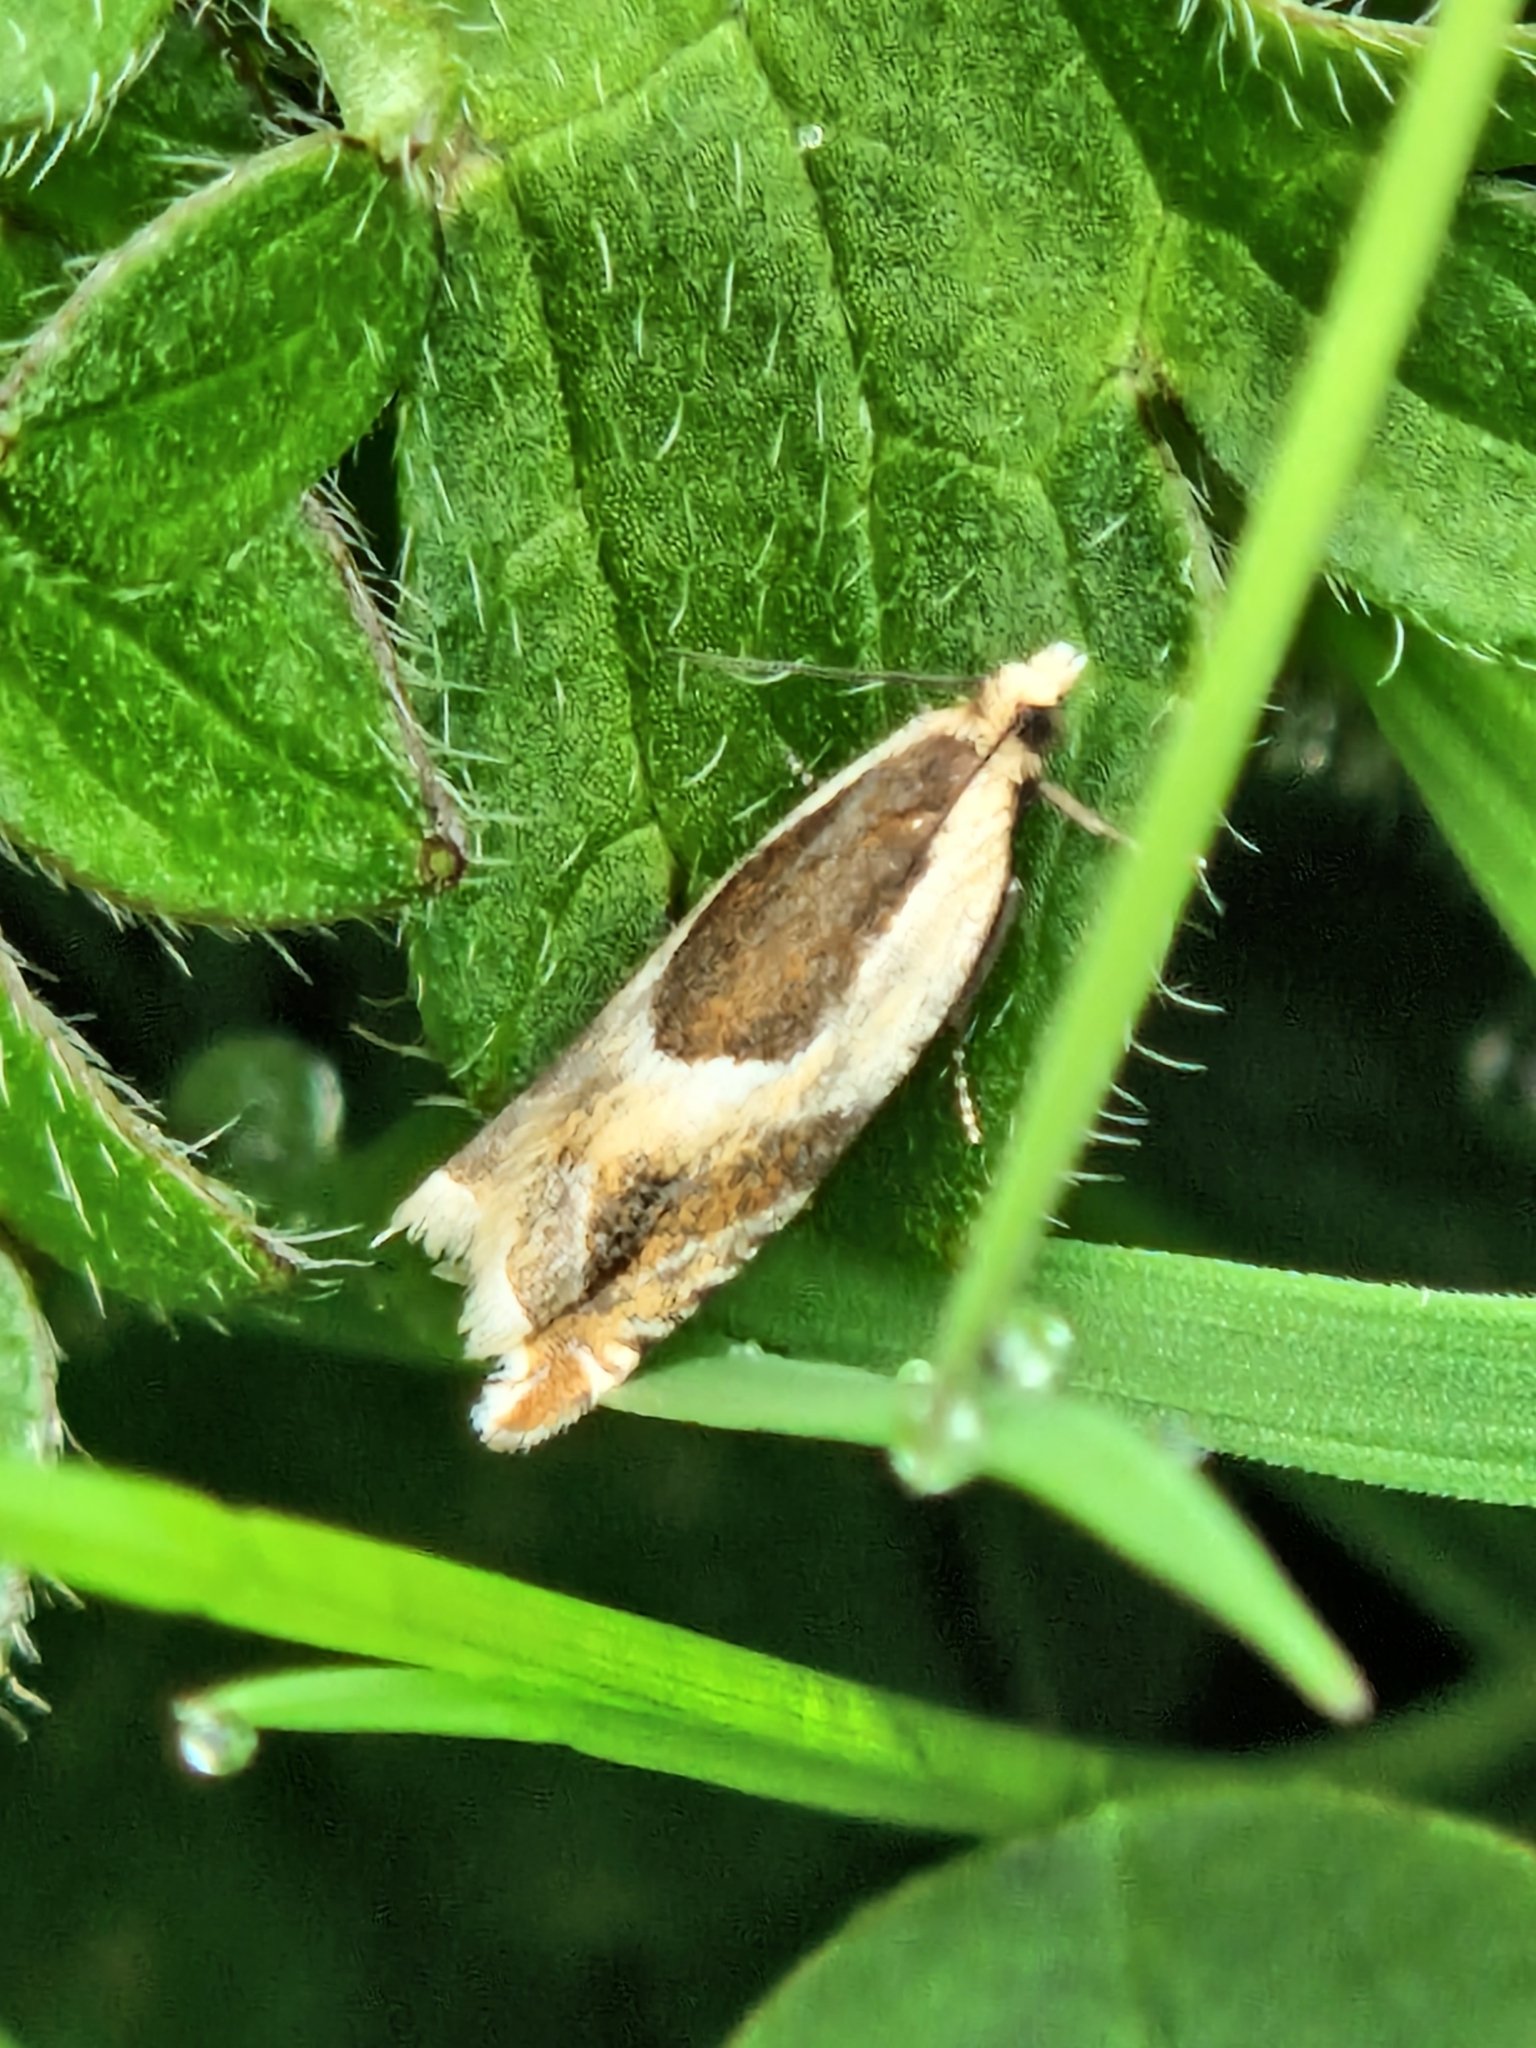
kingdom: Animalia
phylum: Arthropoda
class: Insecta
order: Lepidoptera
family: Tortricidae
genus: Ancylis
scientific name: Ancylis badiana
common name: Common roller
